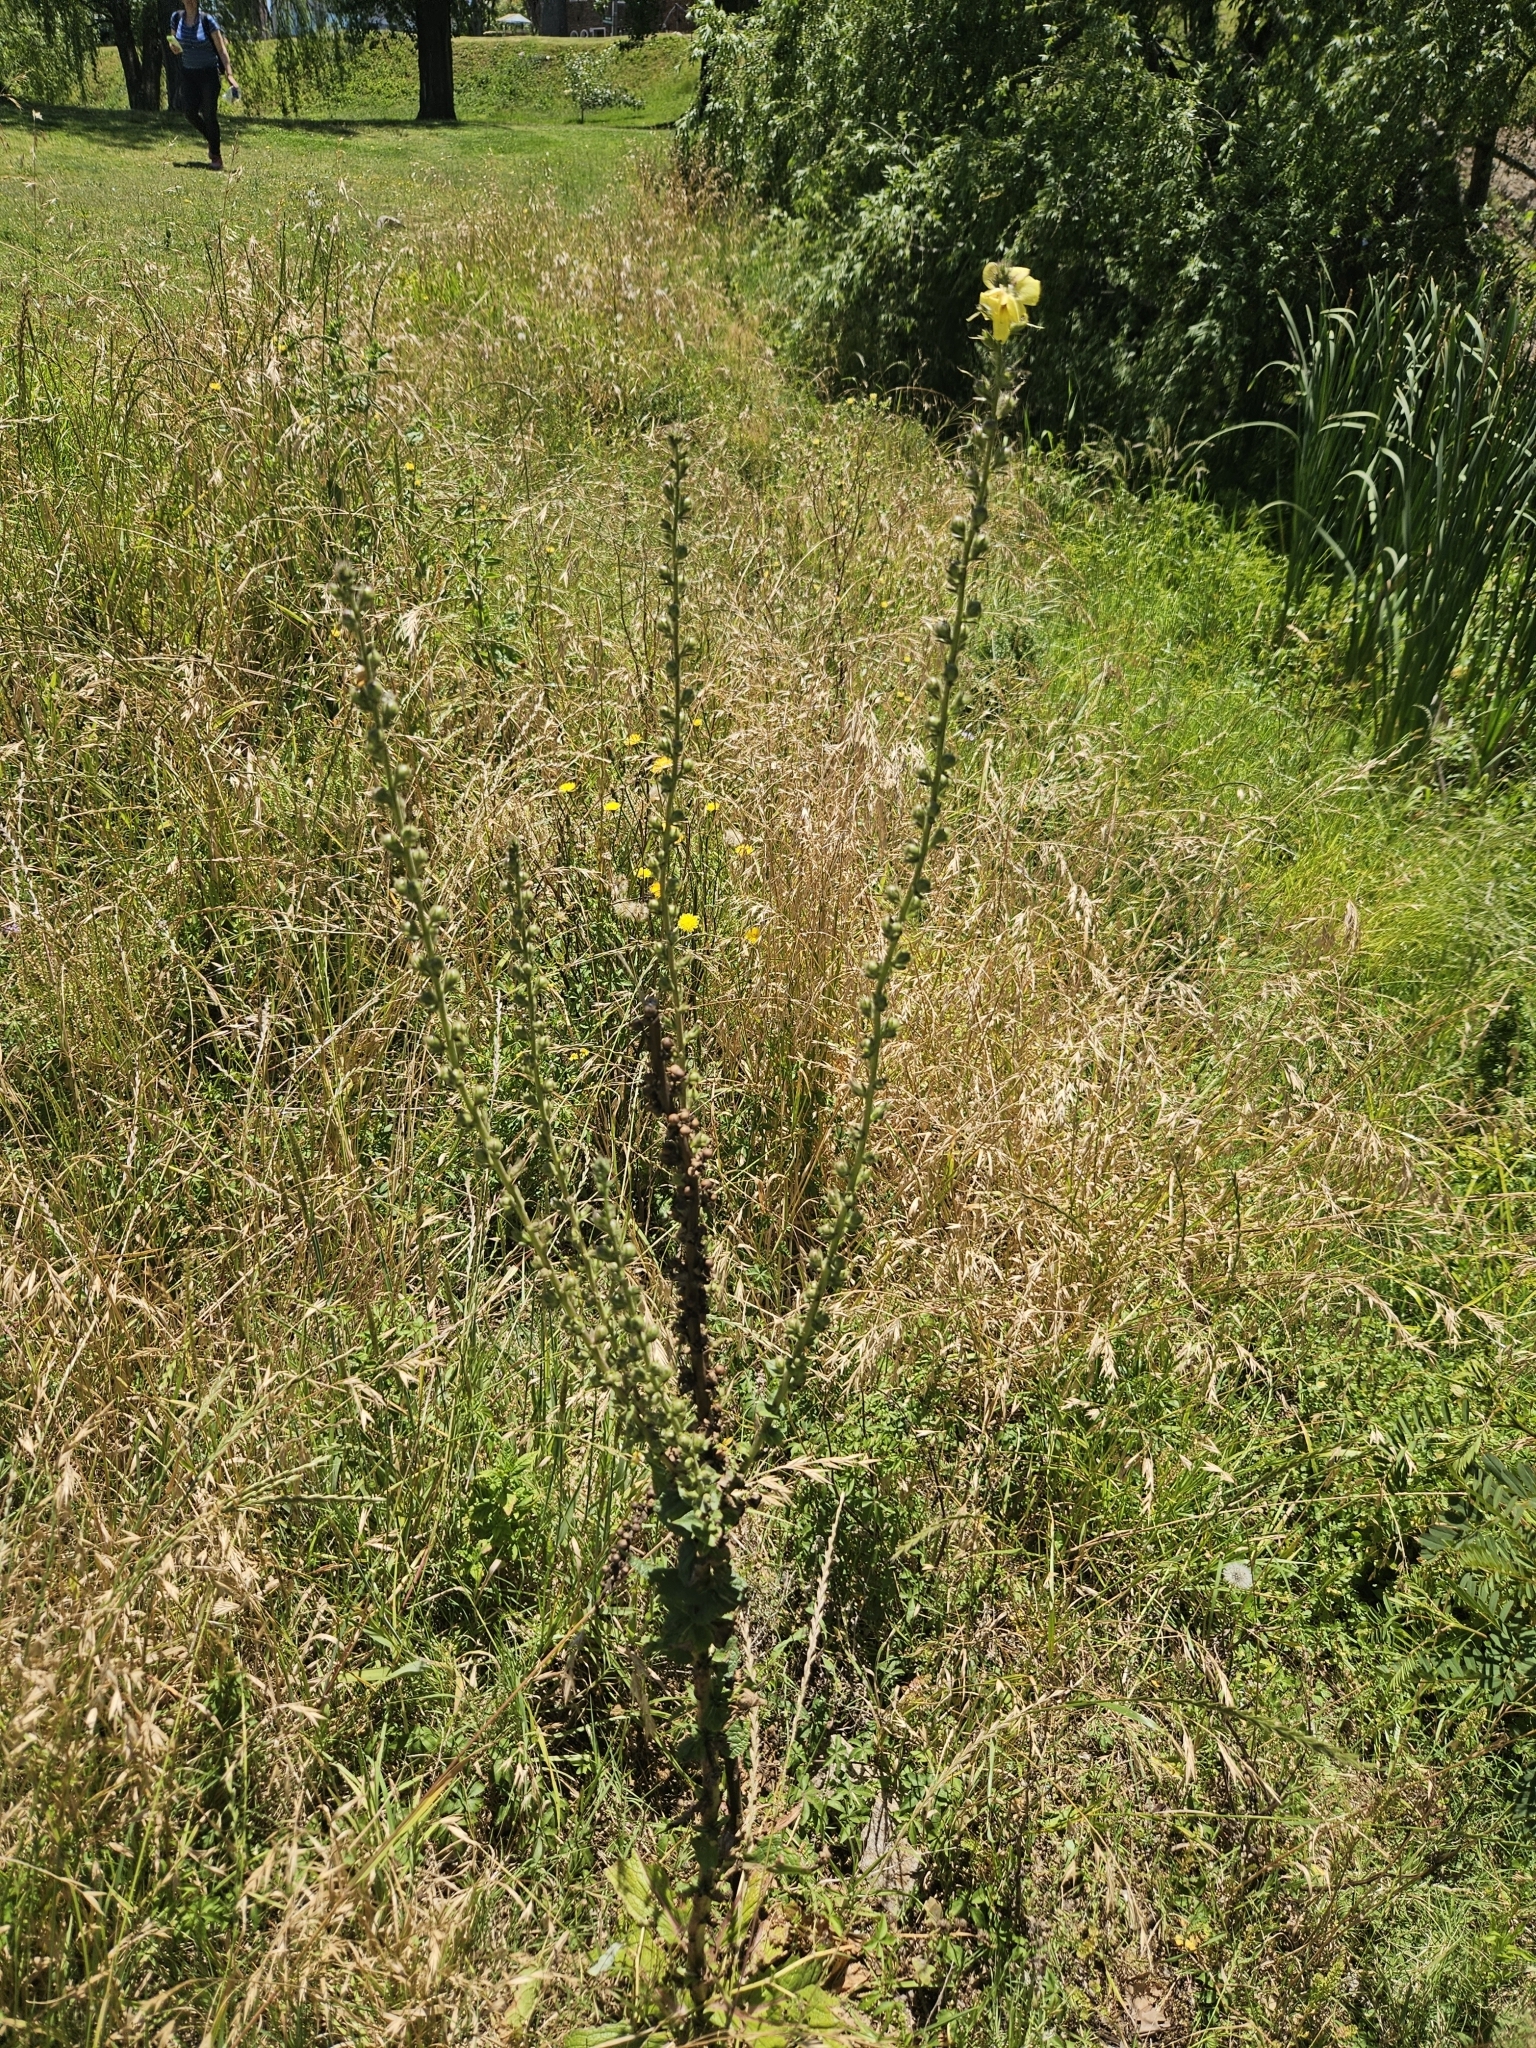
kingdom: Plantae
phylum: Tracheophyta
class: Magnoliopsida
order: Lamiales
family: Scrophulariaceae
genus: Verbascum
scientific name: Verbascum virgatum
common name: Twiggy mullein
